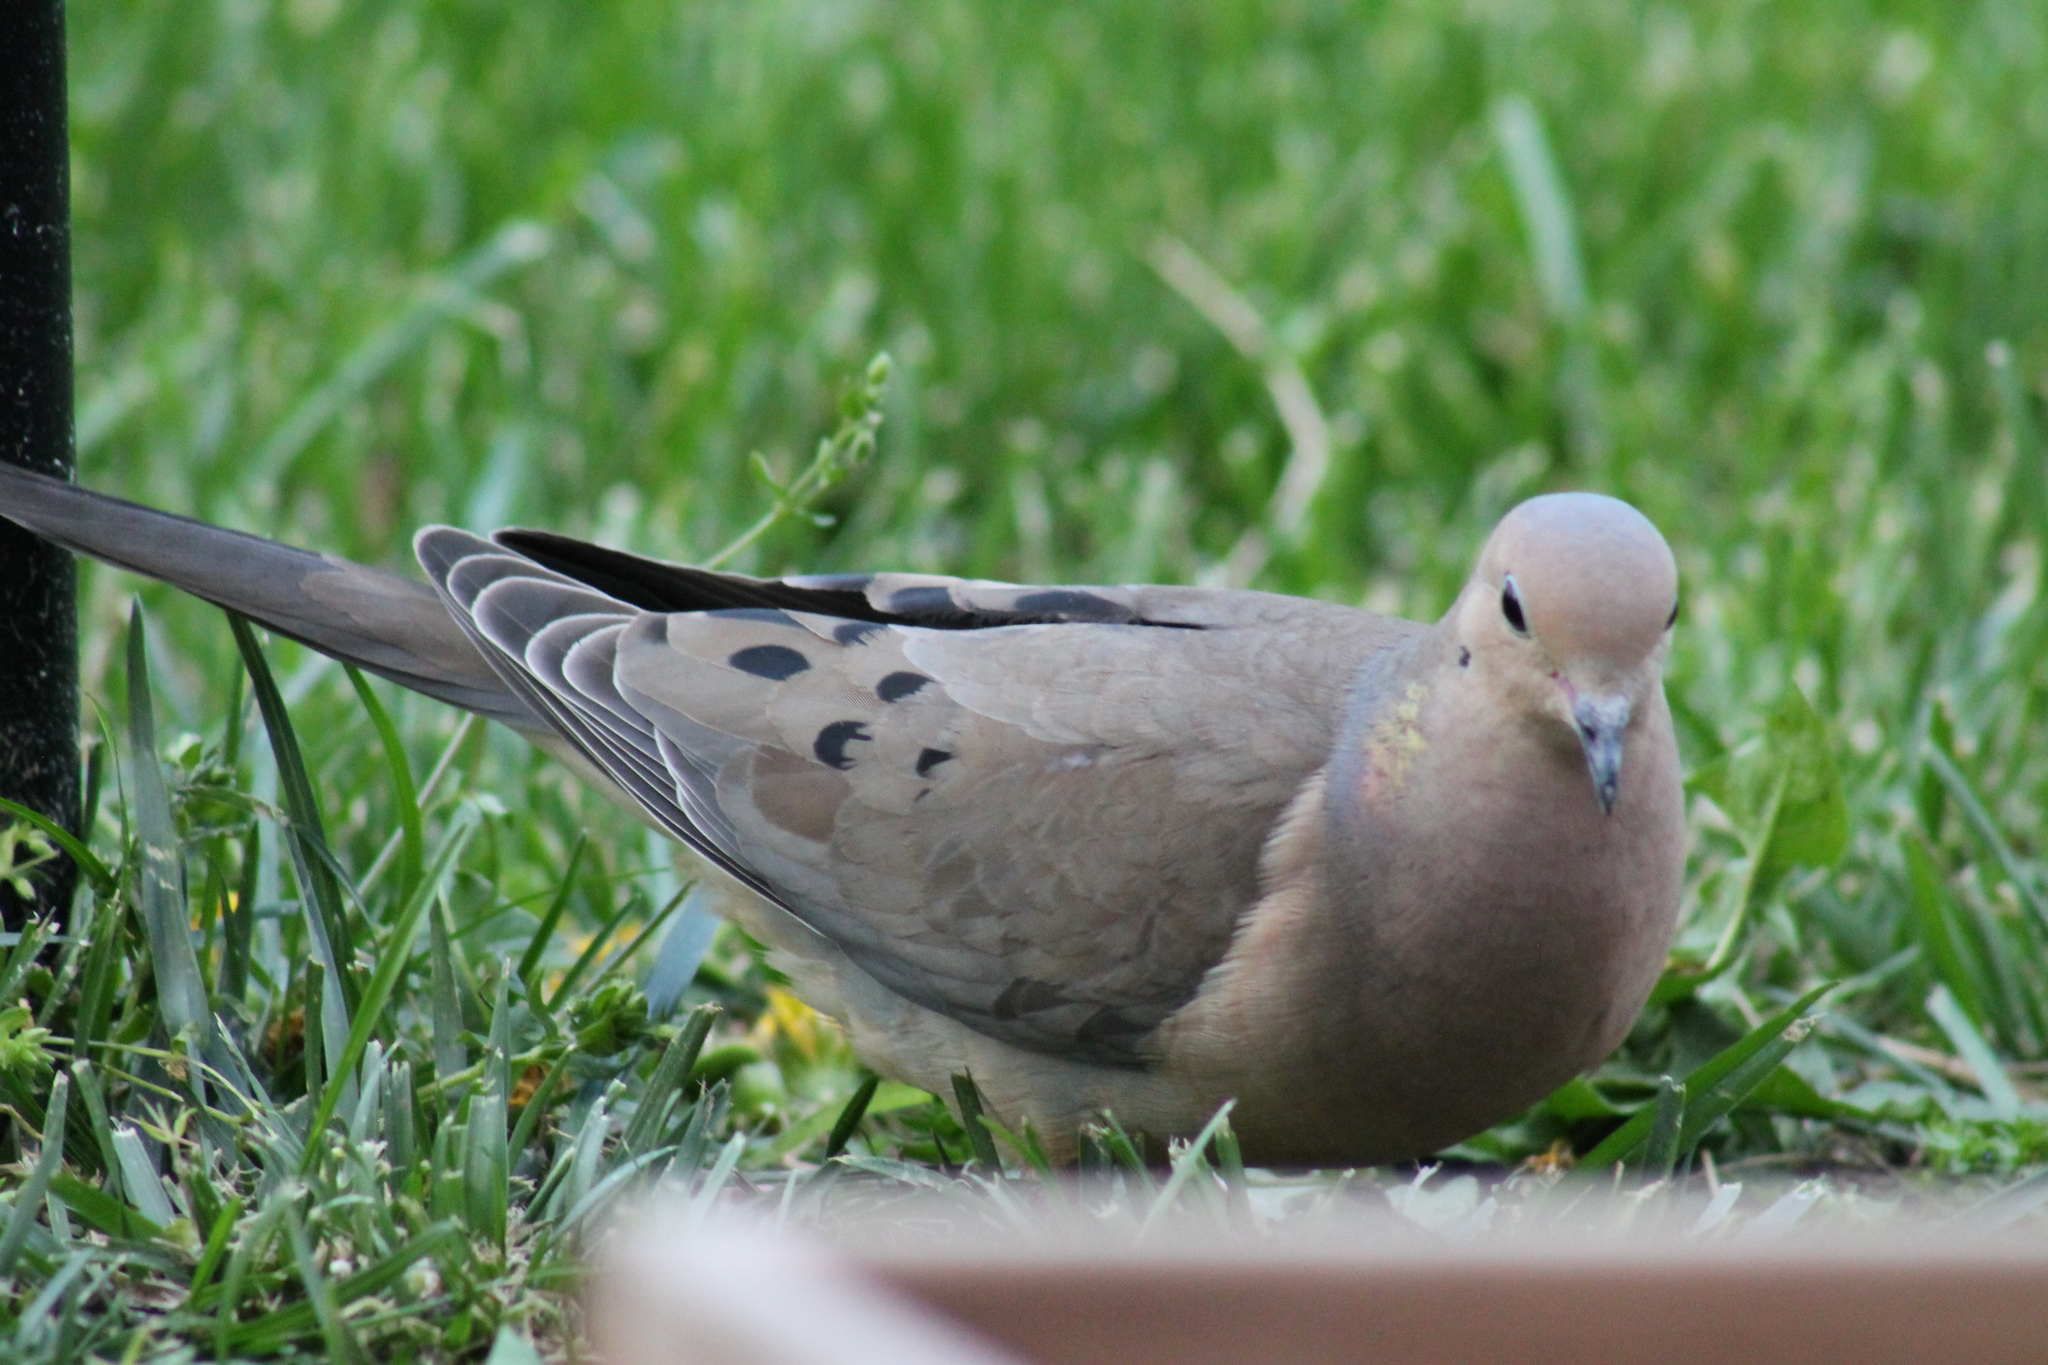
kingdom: Animalia
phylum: Chordata
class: Aves
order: Columbiformes
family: Columbidae
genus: Zenaida
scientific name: Zenaida macroura
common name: Mourning dove
